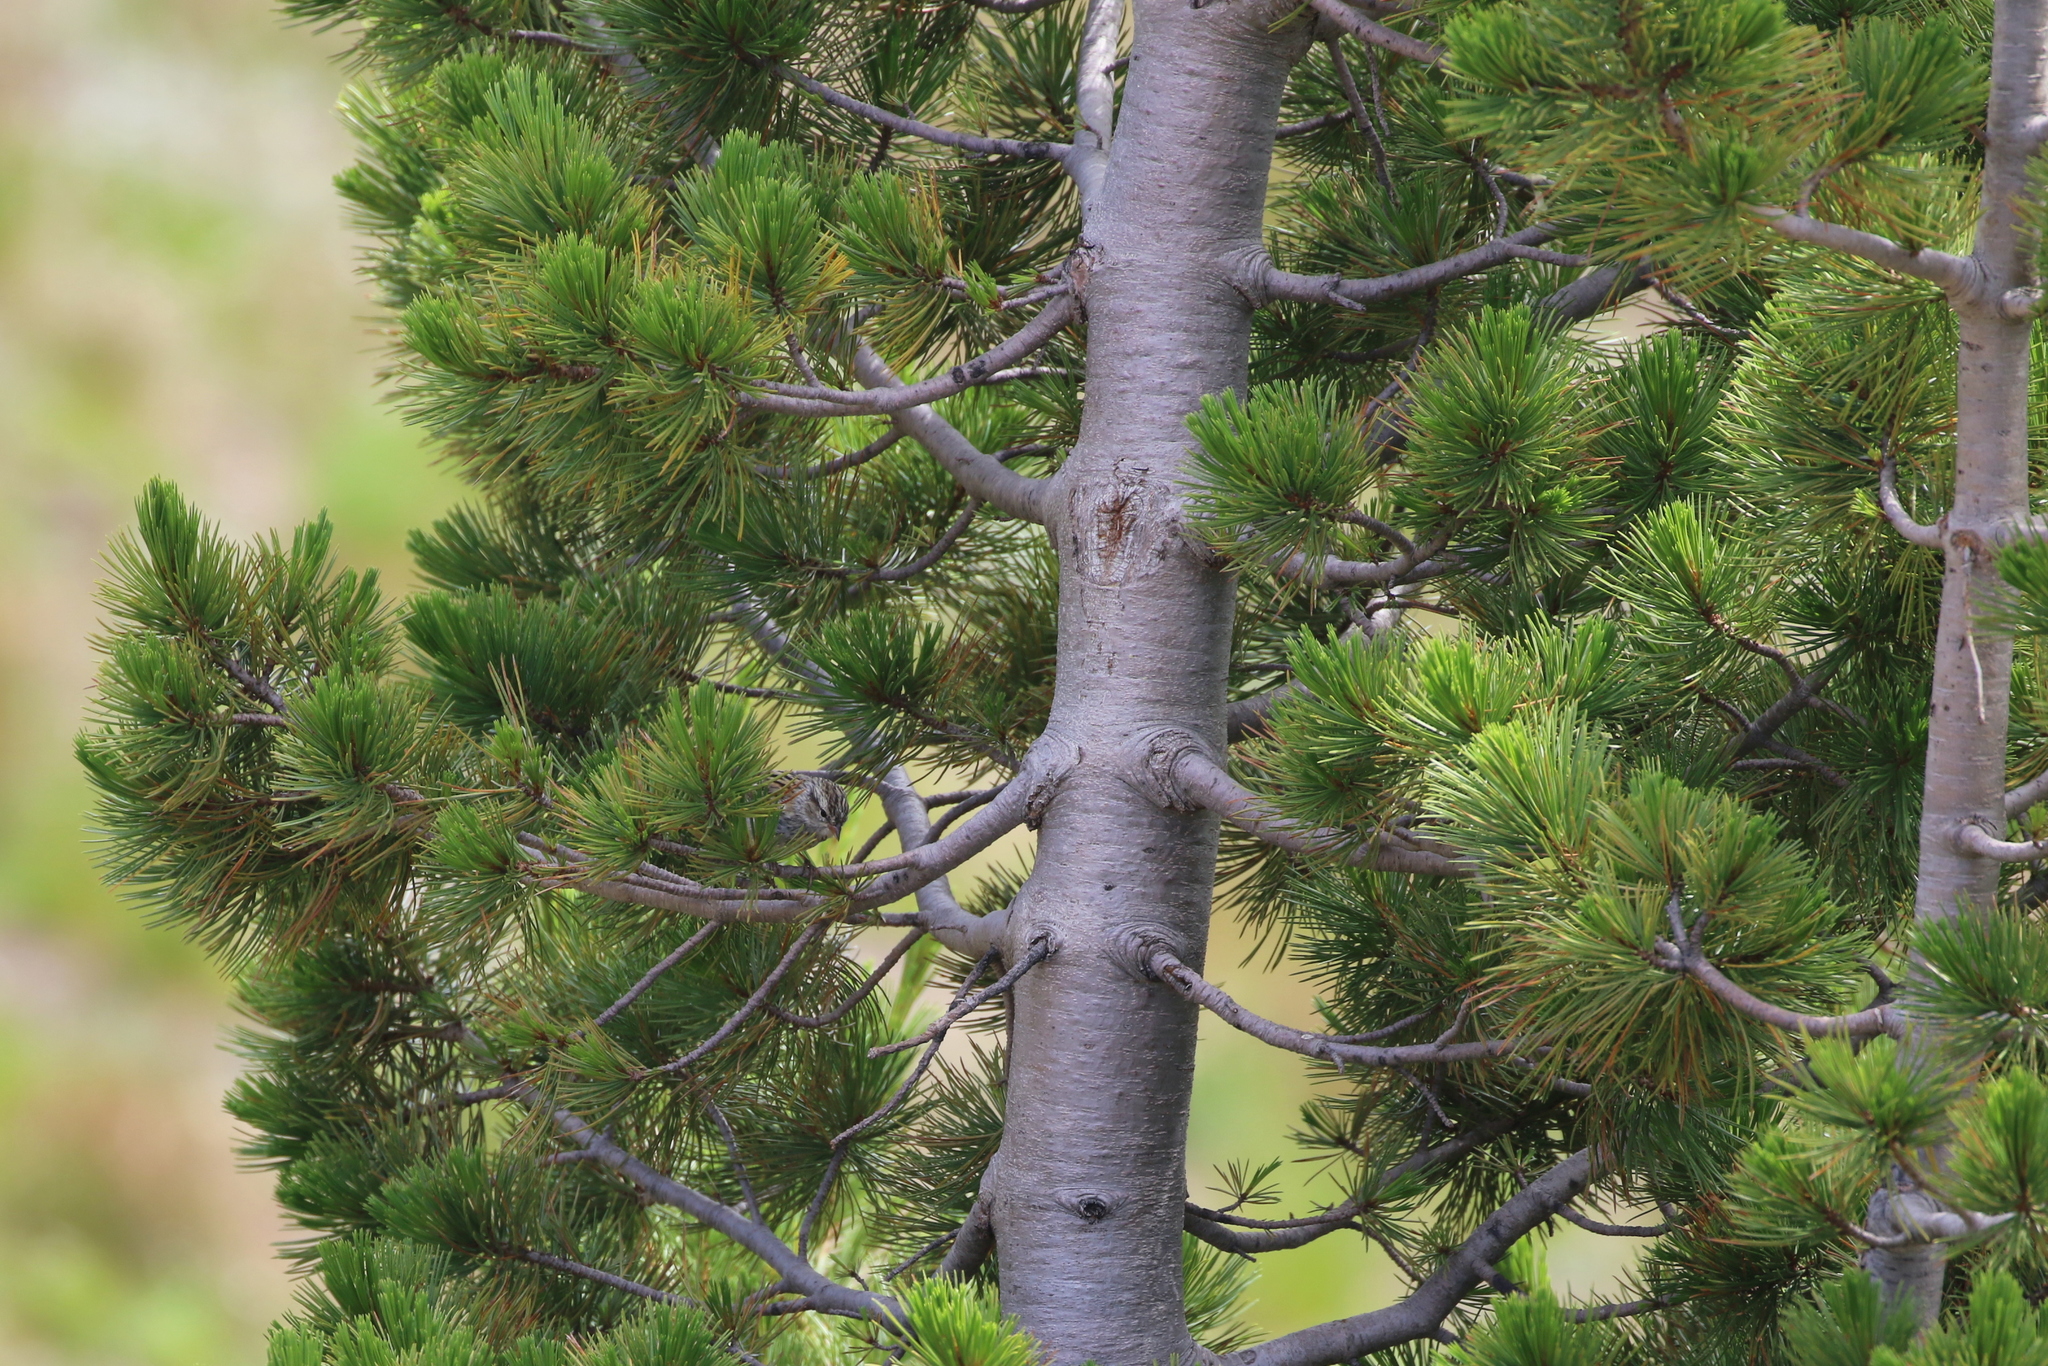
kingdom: Plantae
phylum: Tracheophyta
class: Pinopsida
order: Pinales
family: Pinaceae
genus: Pinus
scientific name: Pinus albicaulis
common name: Whitebark pine
